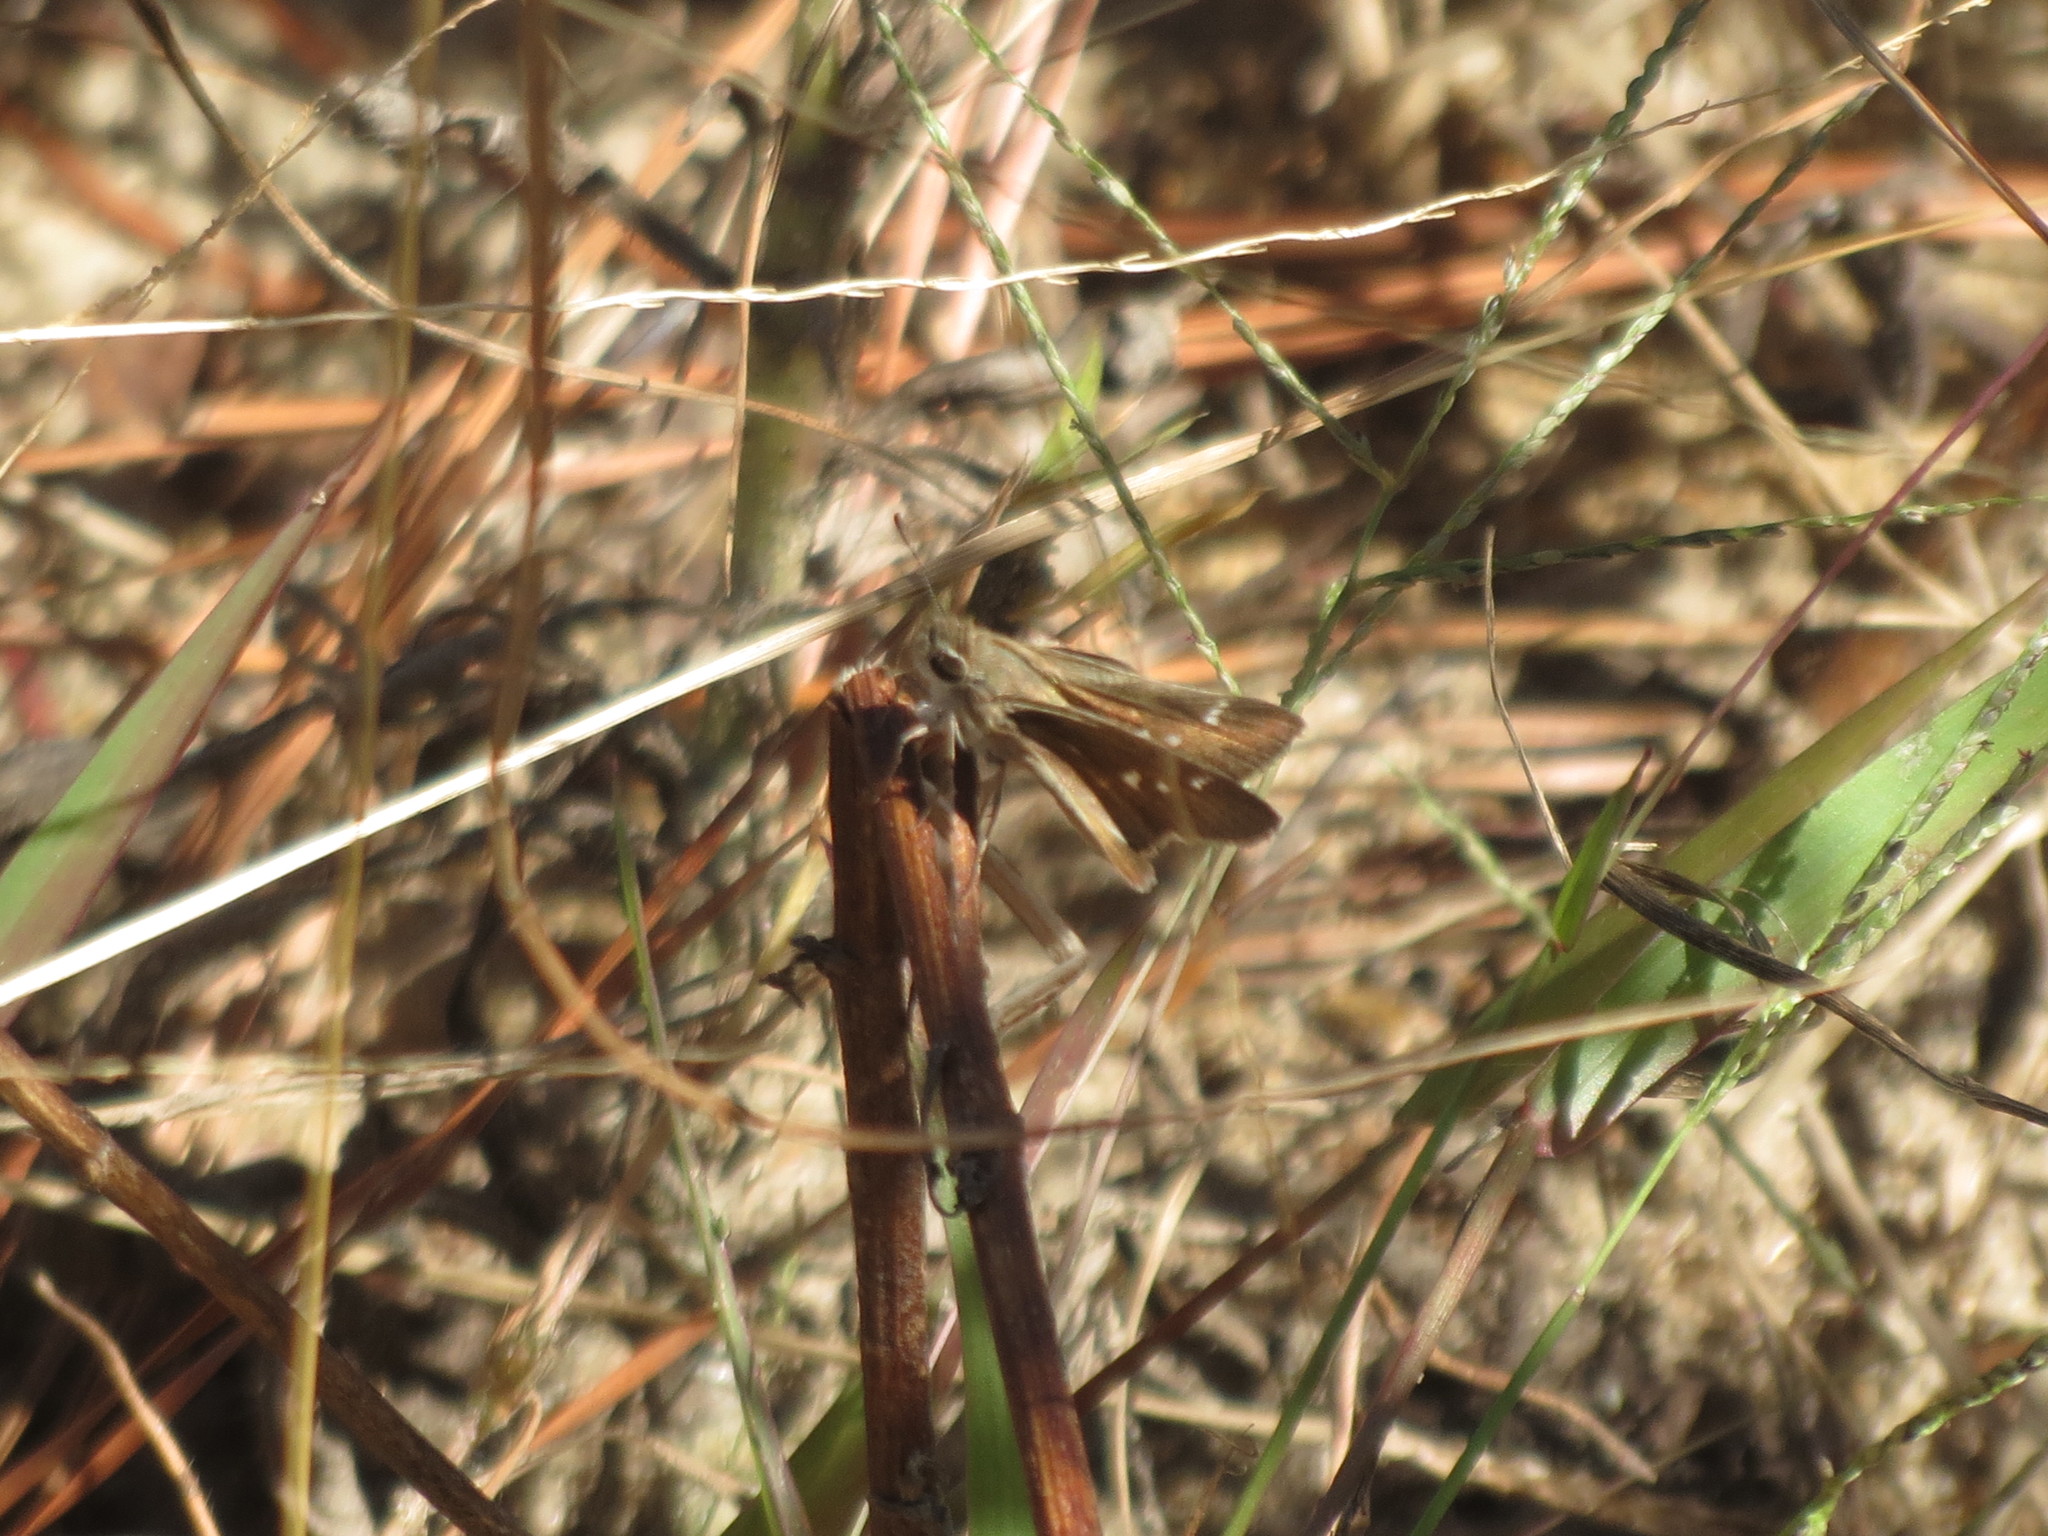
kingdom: Animalia
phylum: Arthropoda
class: Insecta
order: Lepidoptera
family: Hesperiidae
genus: Lerodea
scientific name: Lerodea eufala
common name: Eufala skipper
